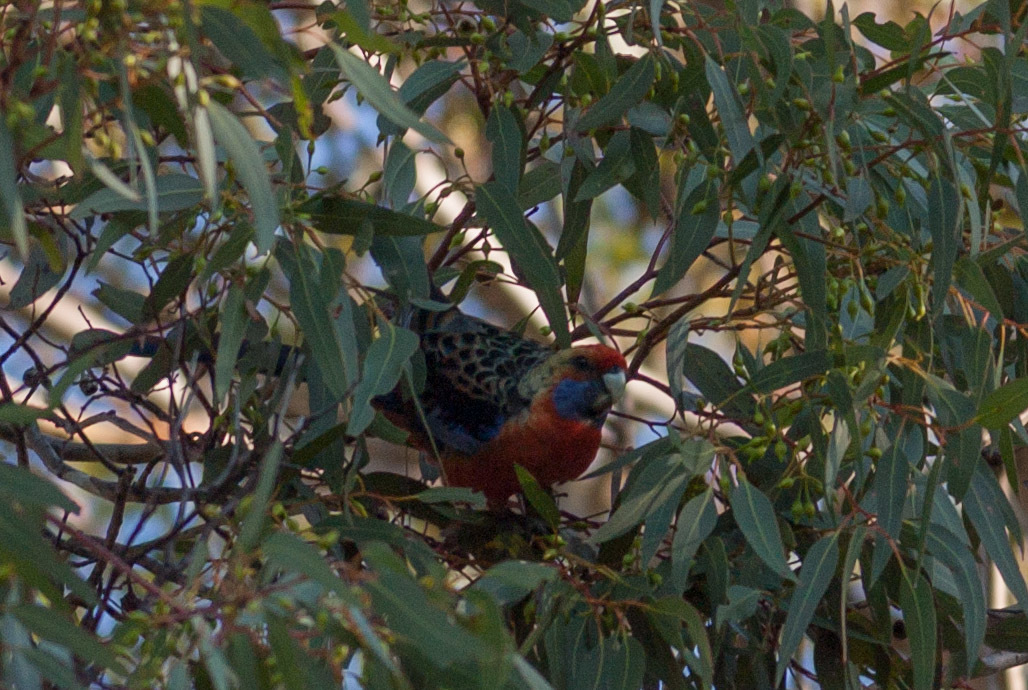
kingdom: Animalia
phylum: Chordata
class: Aves
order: Psittaciformes
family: Psittacidae
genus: Platycercus
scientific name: Platycercus elegans
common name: Crimson rosella
